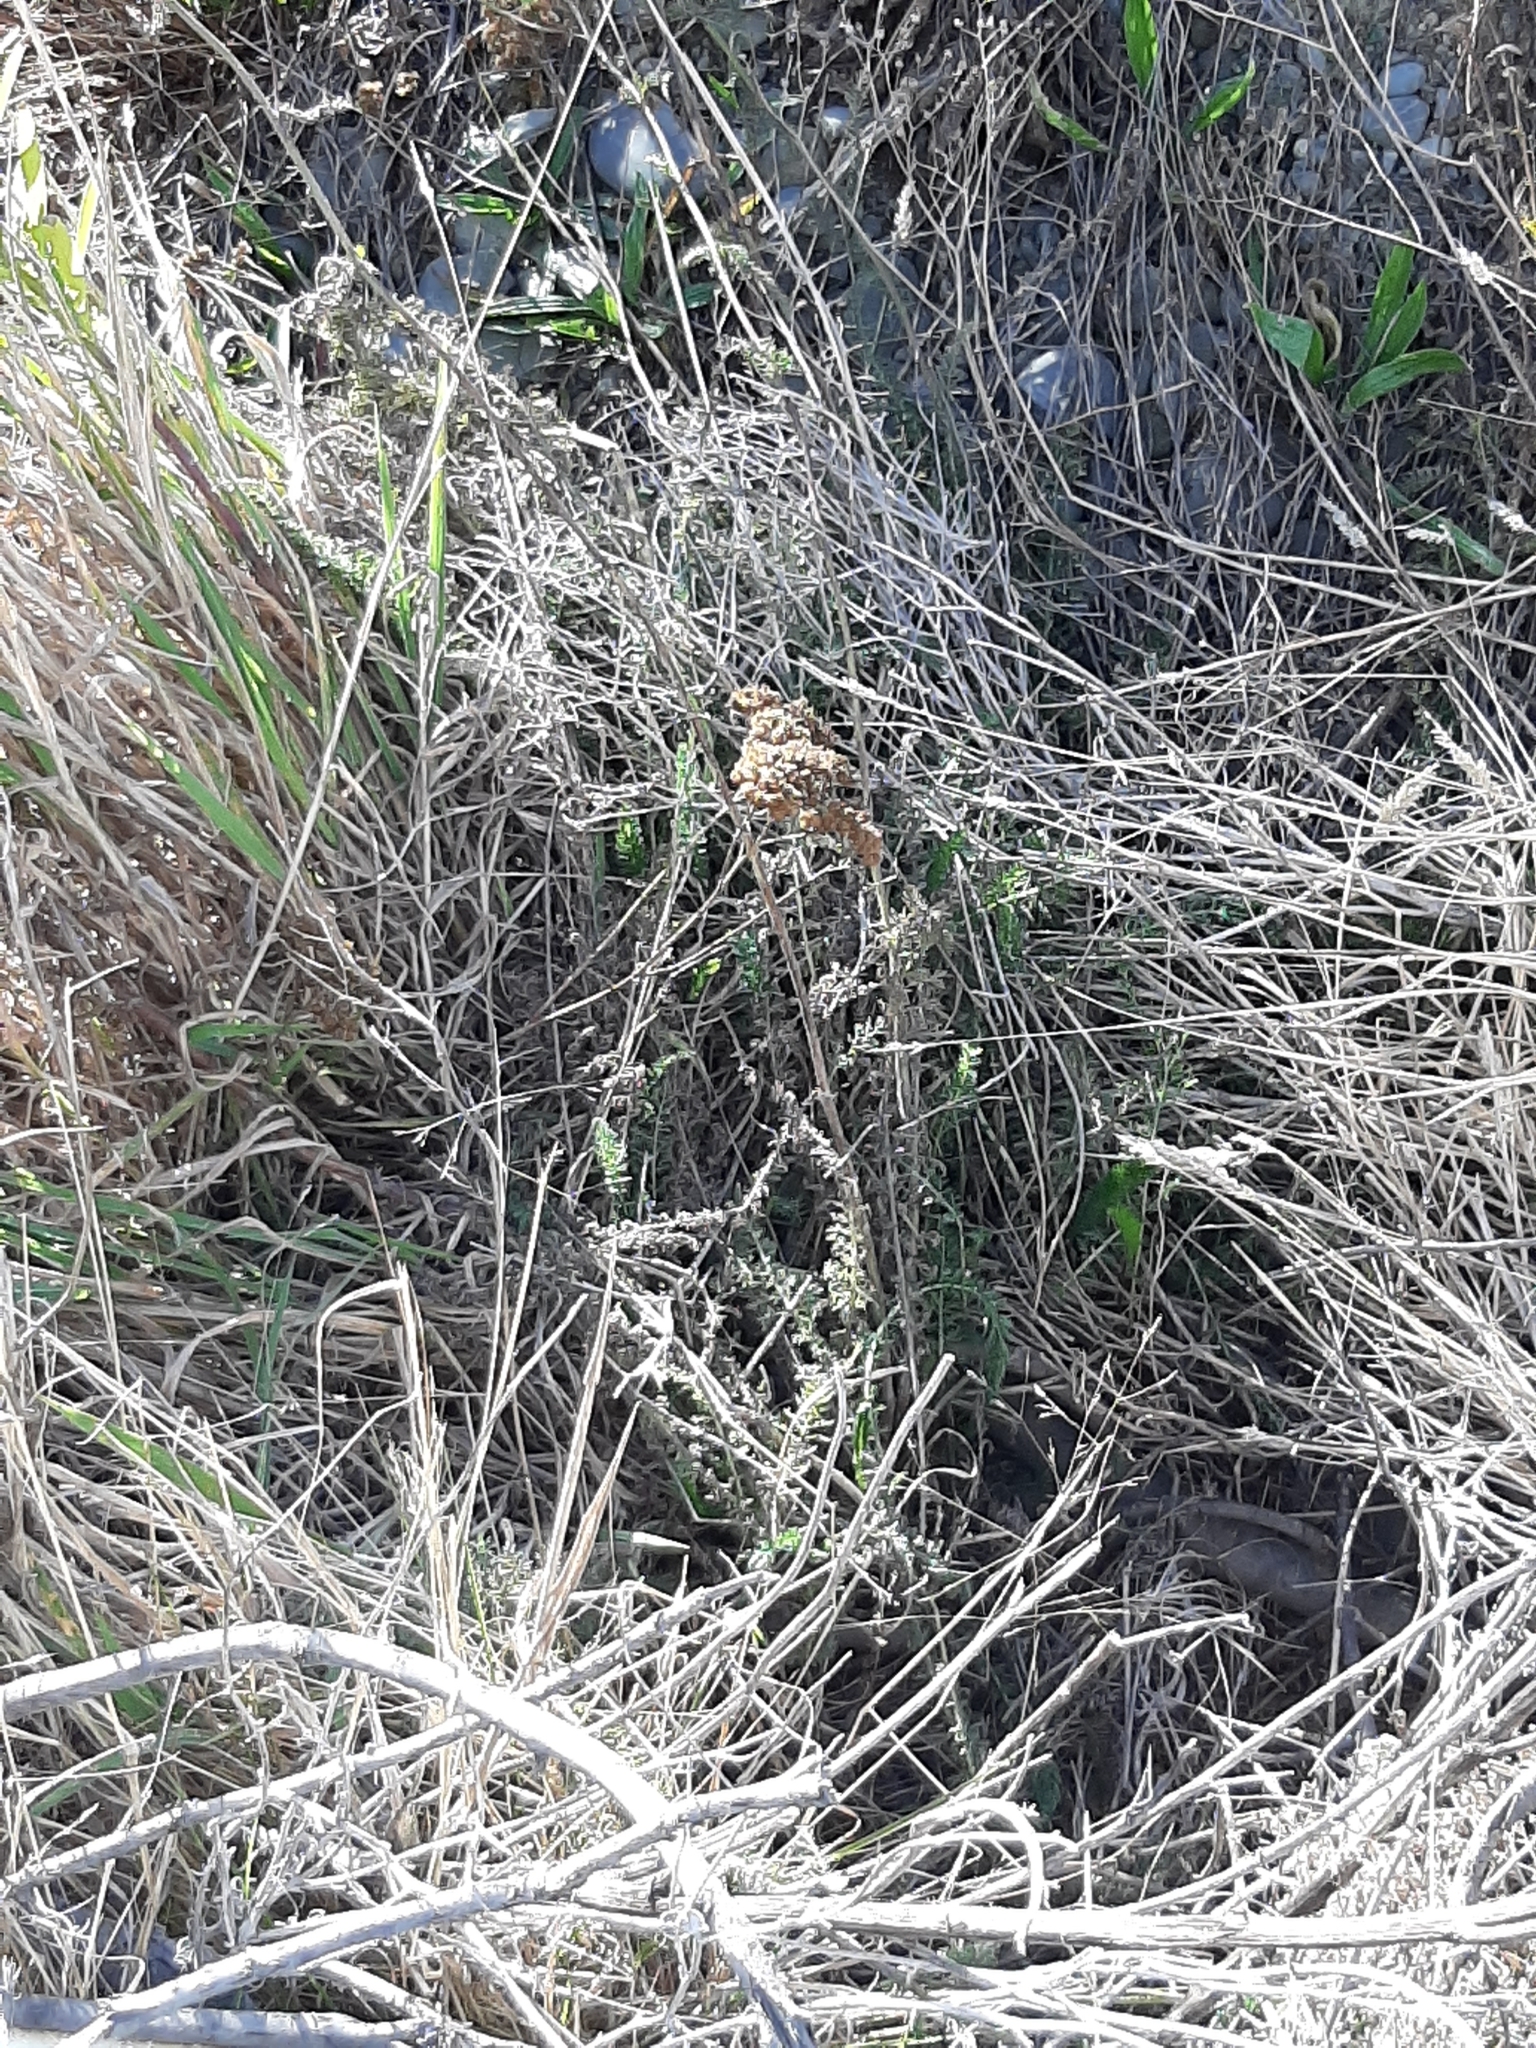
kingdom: Plantae
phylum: Tracheophyta
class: Magnoliopsida
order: Asterales
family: Asteraceae
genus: Achillea
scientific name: Achillea millefolium
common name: Yarrow
